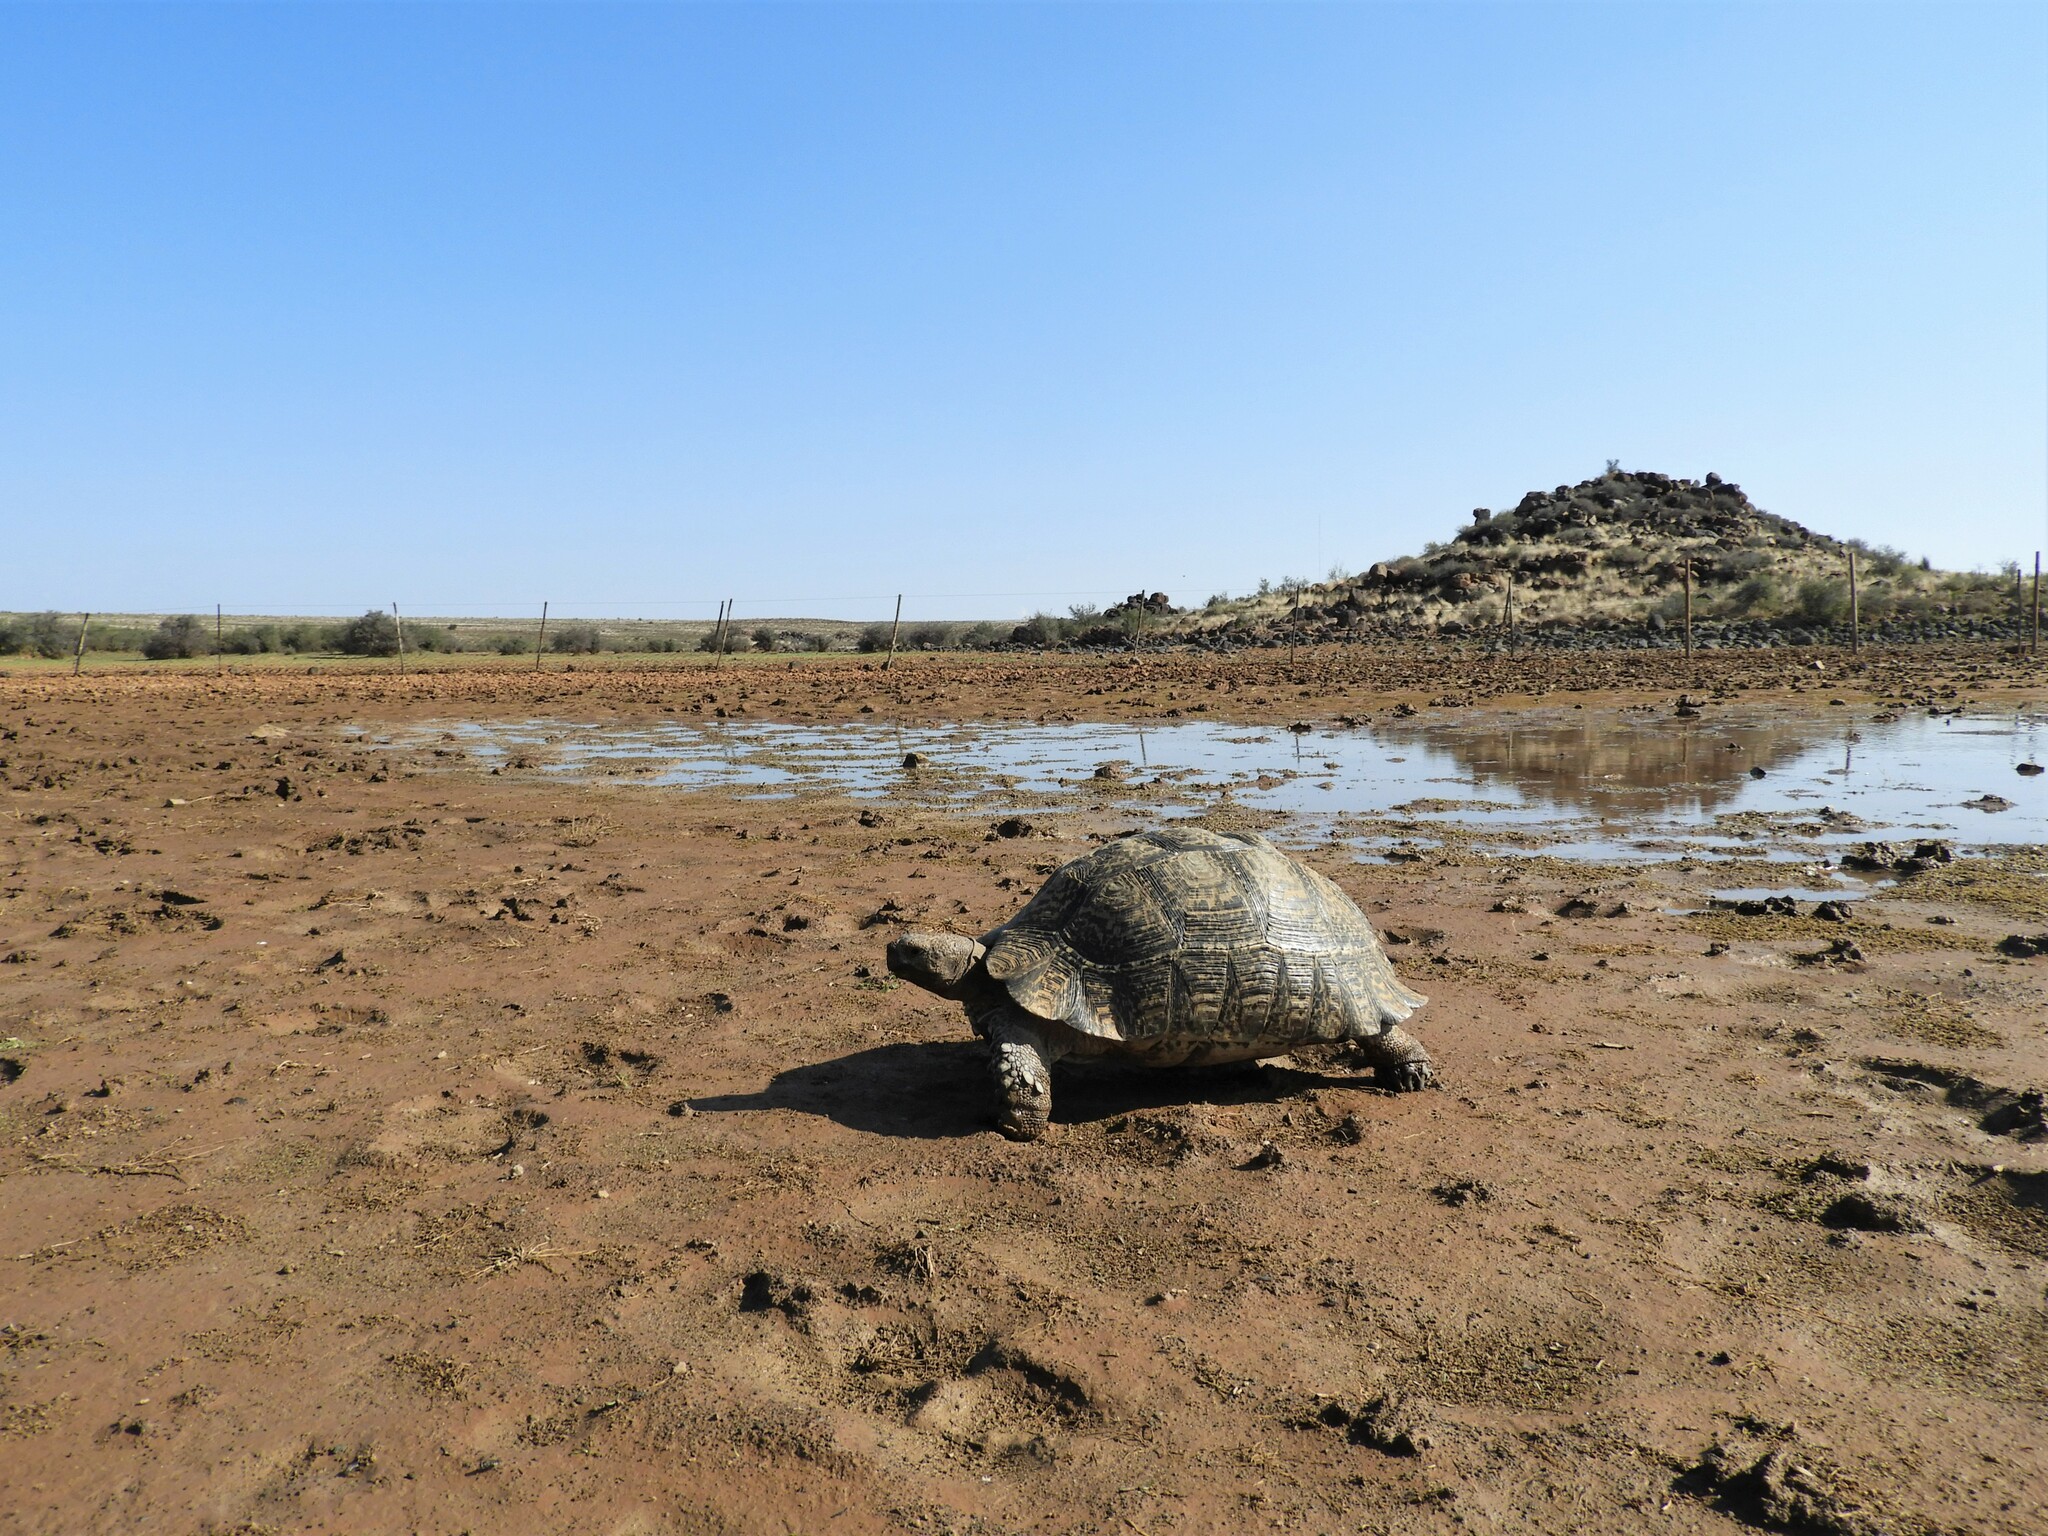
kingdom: Animalia
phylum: Chordata
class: Testudines
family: Testudinidae
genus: Stigmochelys
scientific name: Stigmochelys pardalis
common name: Leopard tortoise
